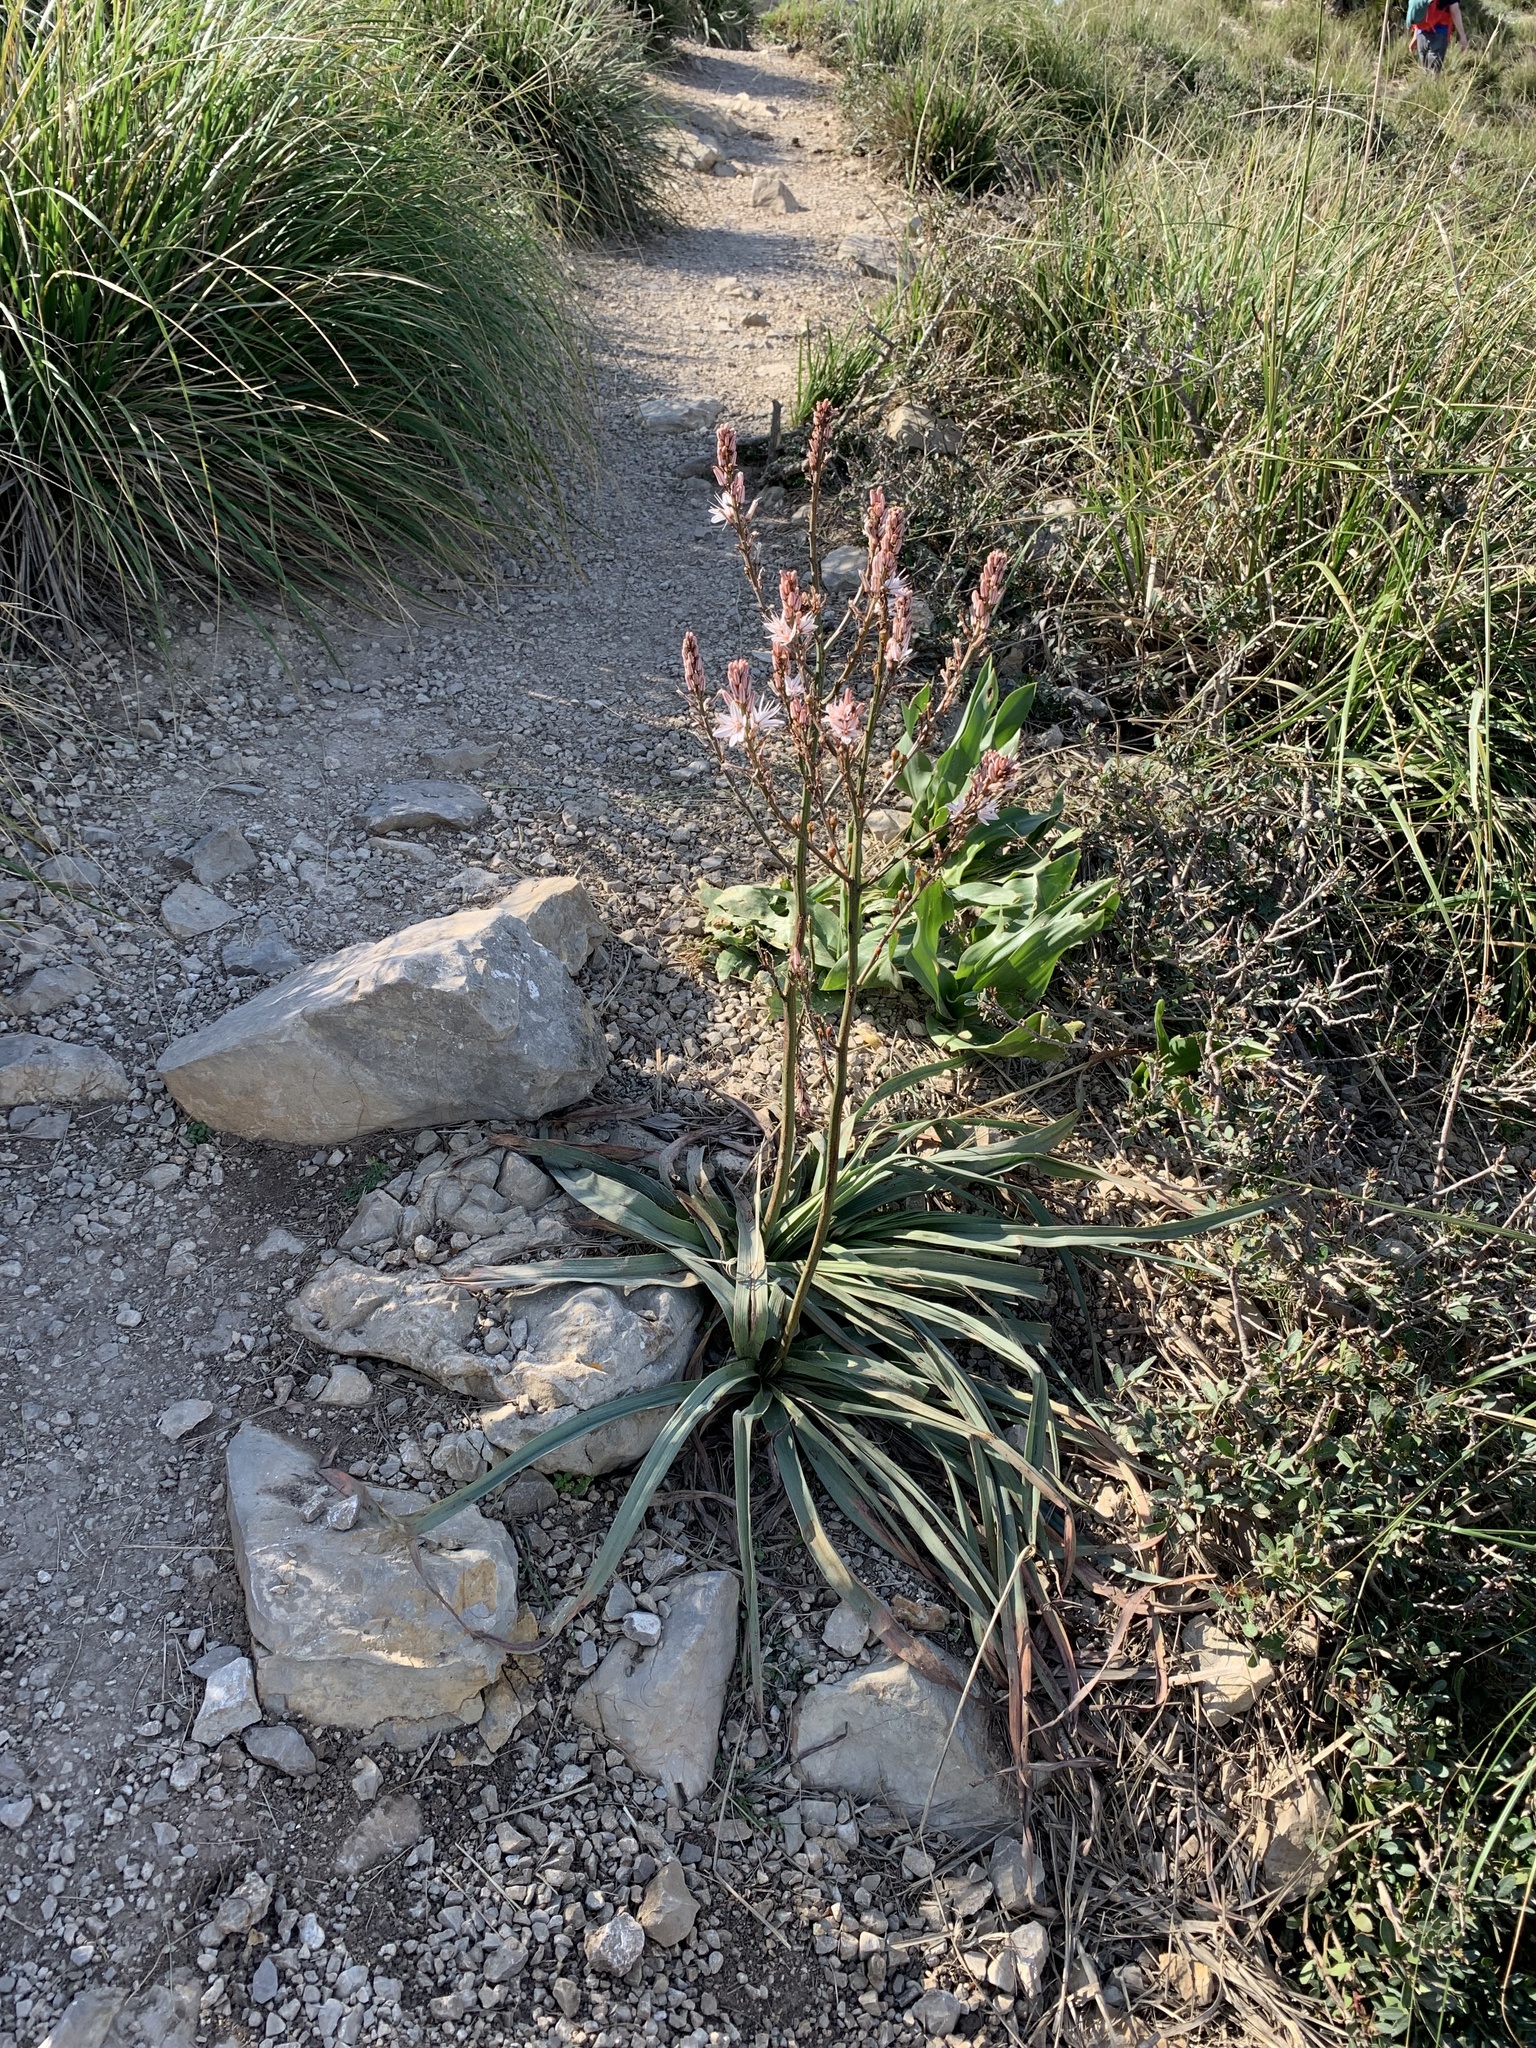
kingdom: Plantae
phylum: Tracheophyta
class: Liliopsida
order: Asparagales
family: Asphodelaceae
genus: Asphodelus
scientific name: Asphodelus ramosus
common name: Silverrod
